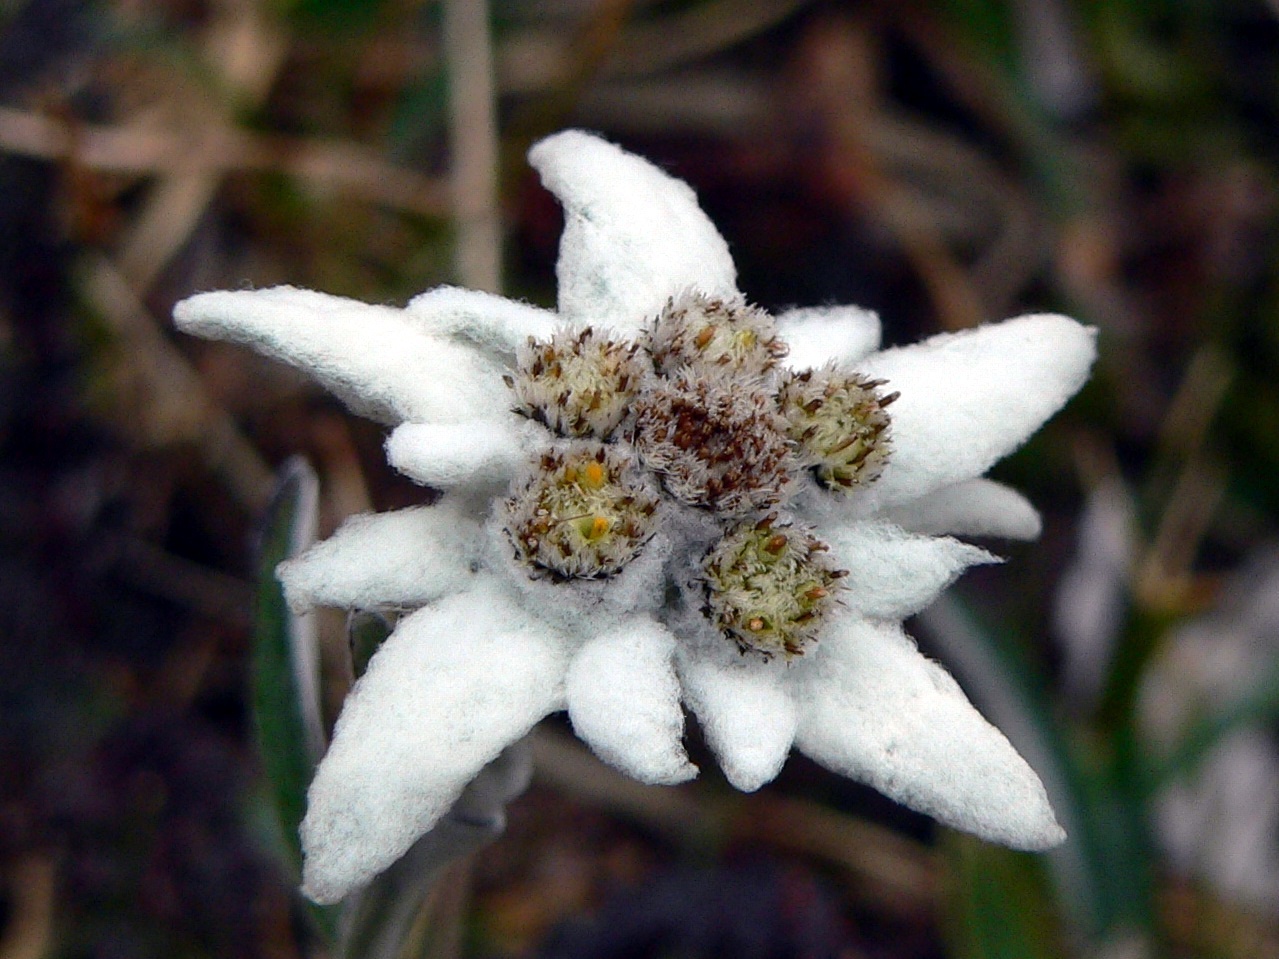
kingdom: Plantae
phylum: Tracheophyta
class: Magnoliopsida
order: Asterales
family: Asteraceae
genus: Leontopodium
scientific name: Leontopodium nivale
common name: Edelweiss
